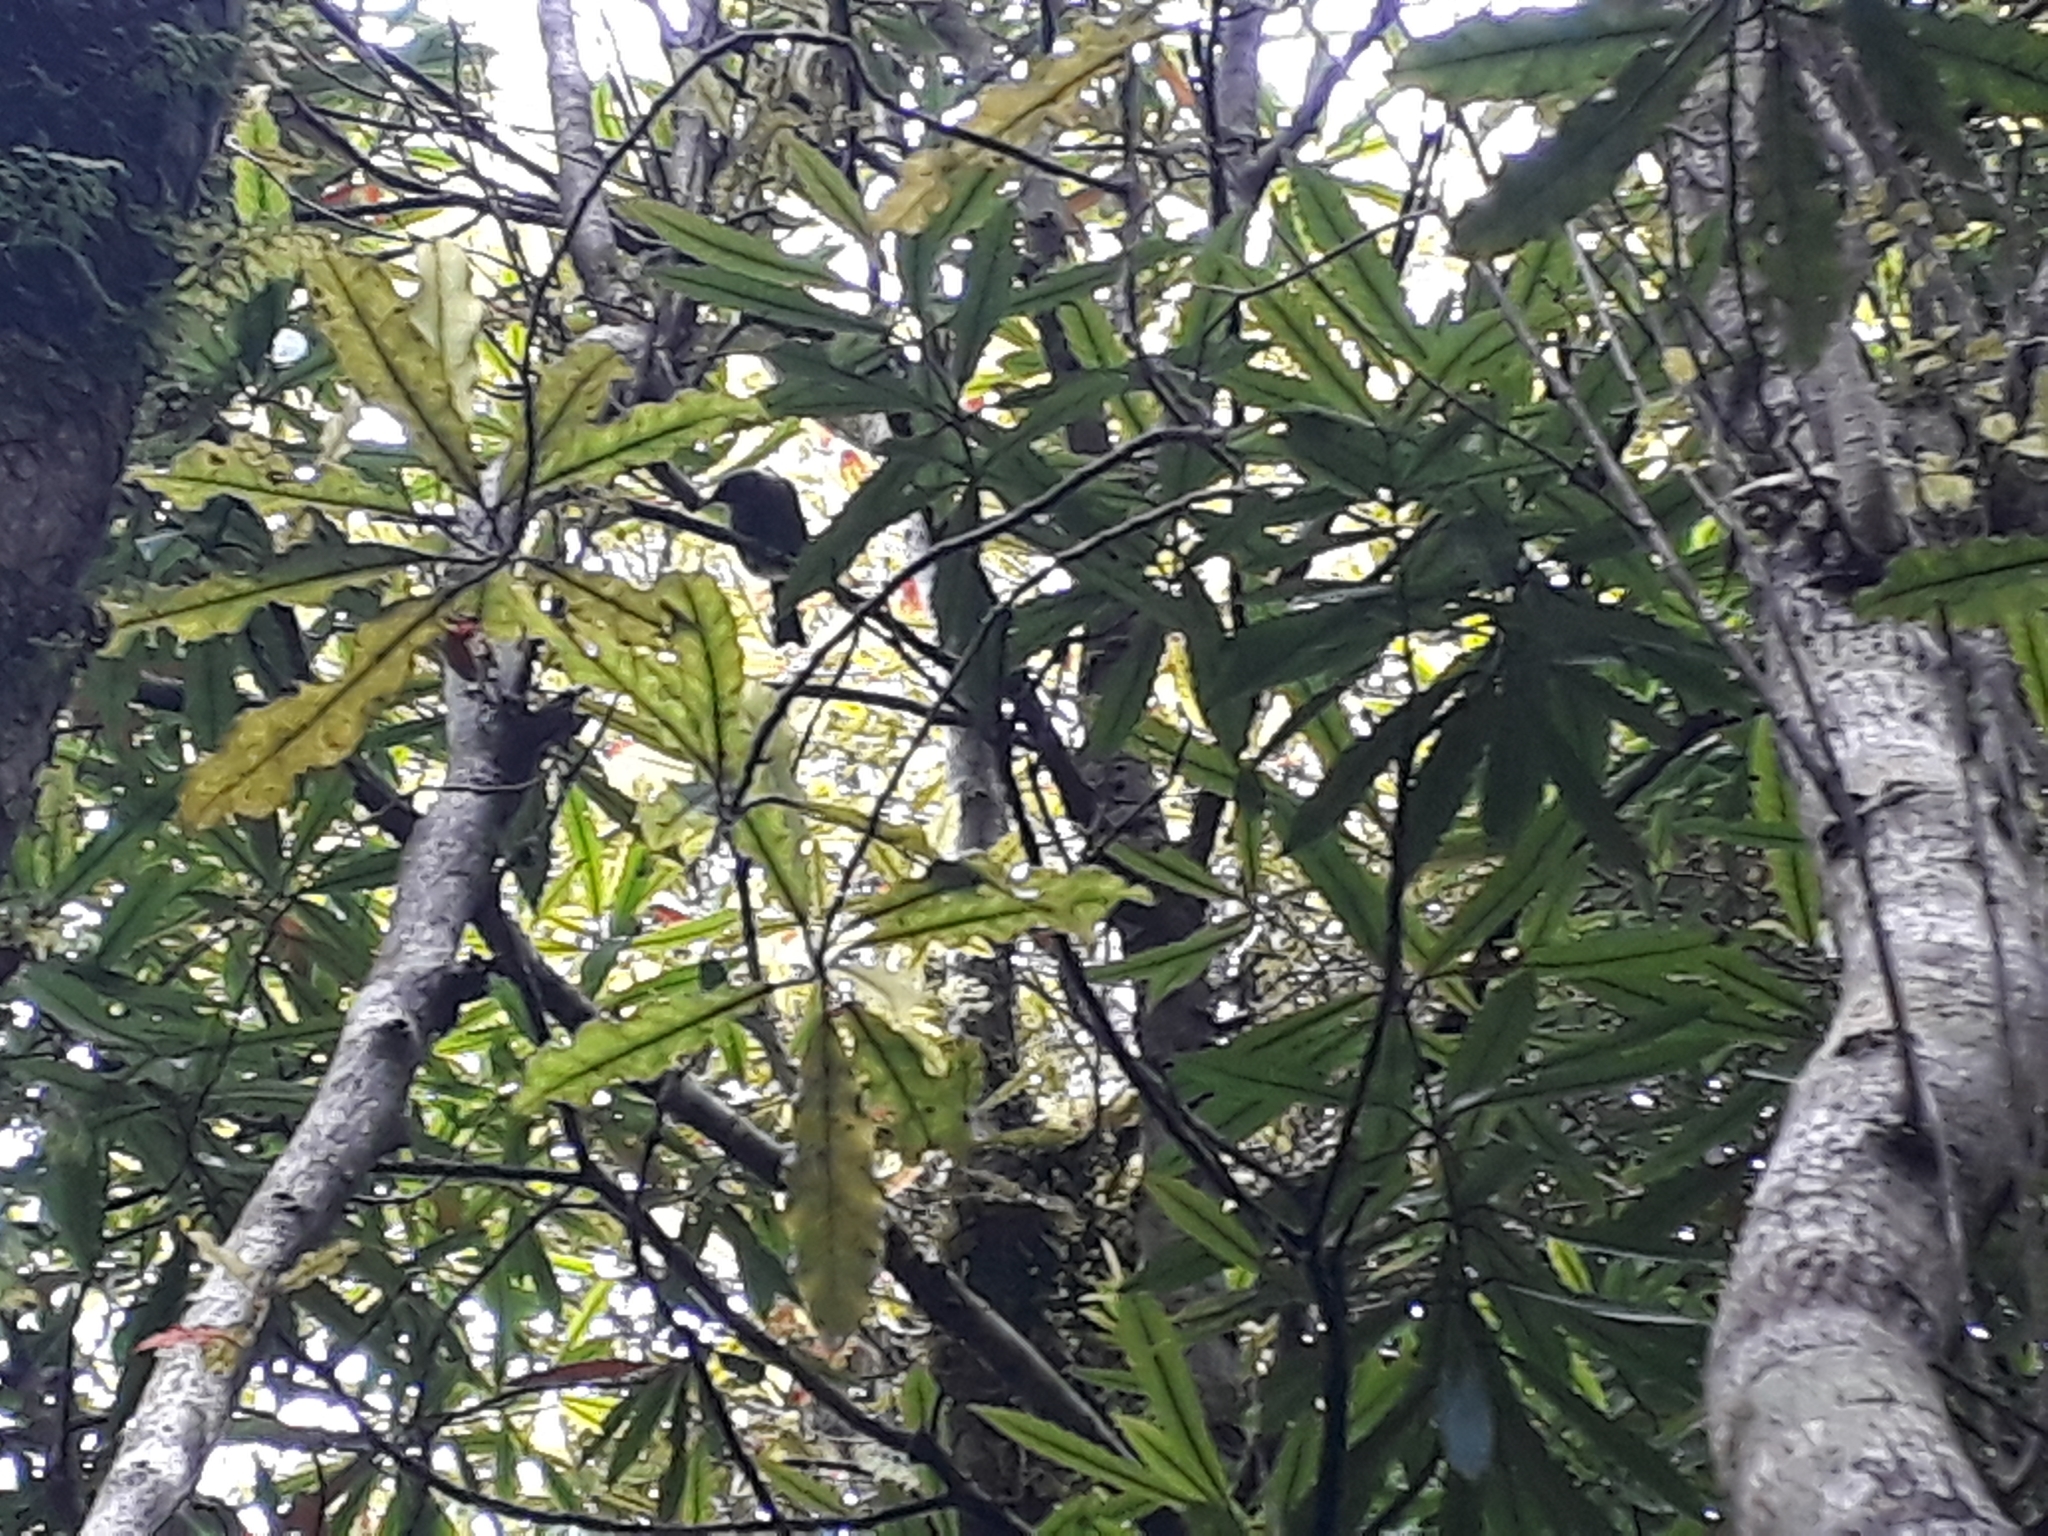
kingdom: Animalia
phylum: Chordata
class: Aves
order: Passeriformes
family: Meliphagidae
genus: Anthornis
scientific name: Anthornis melanura
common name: New zealand bellbird
